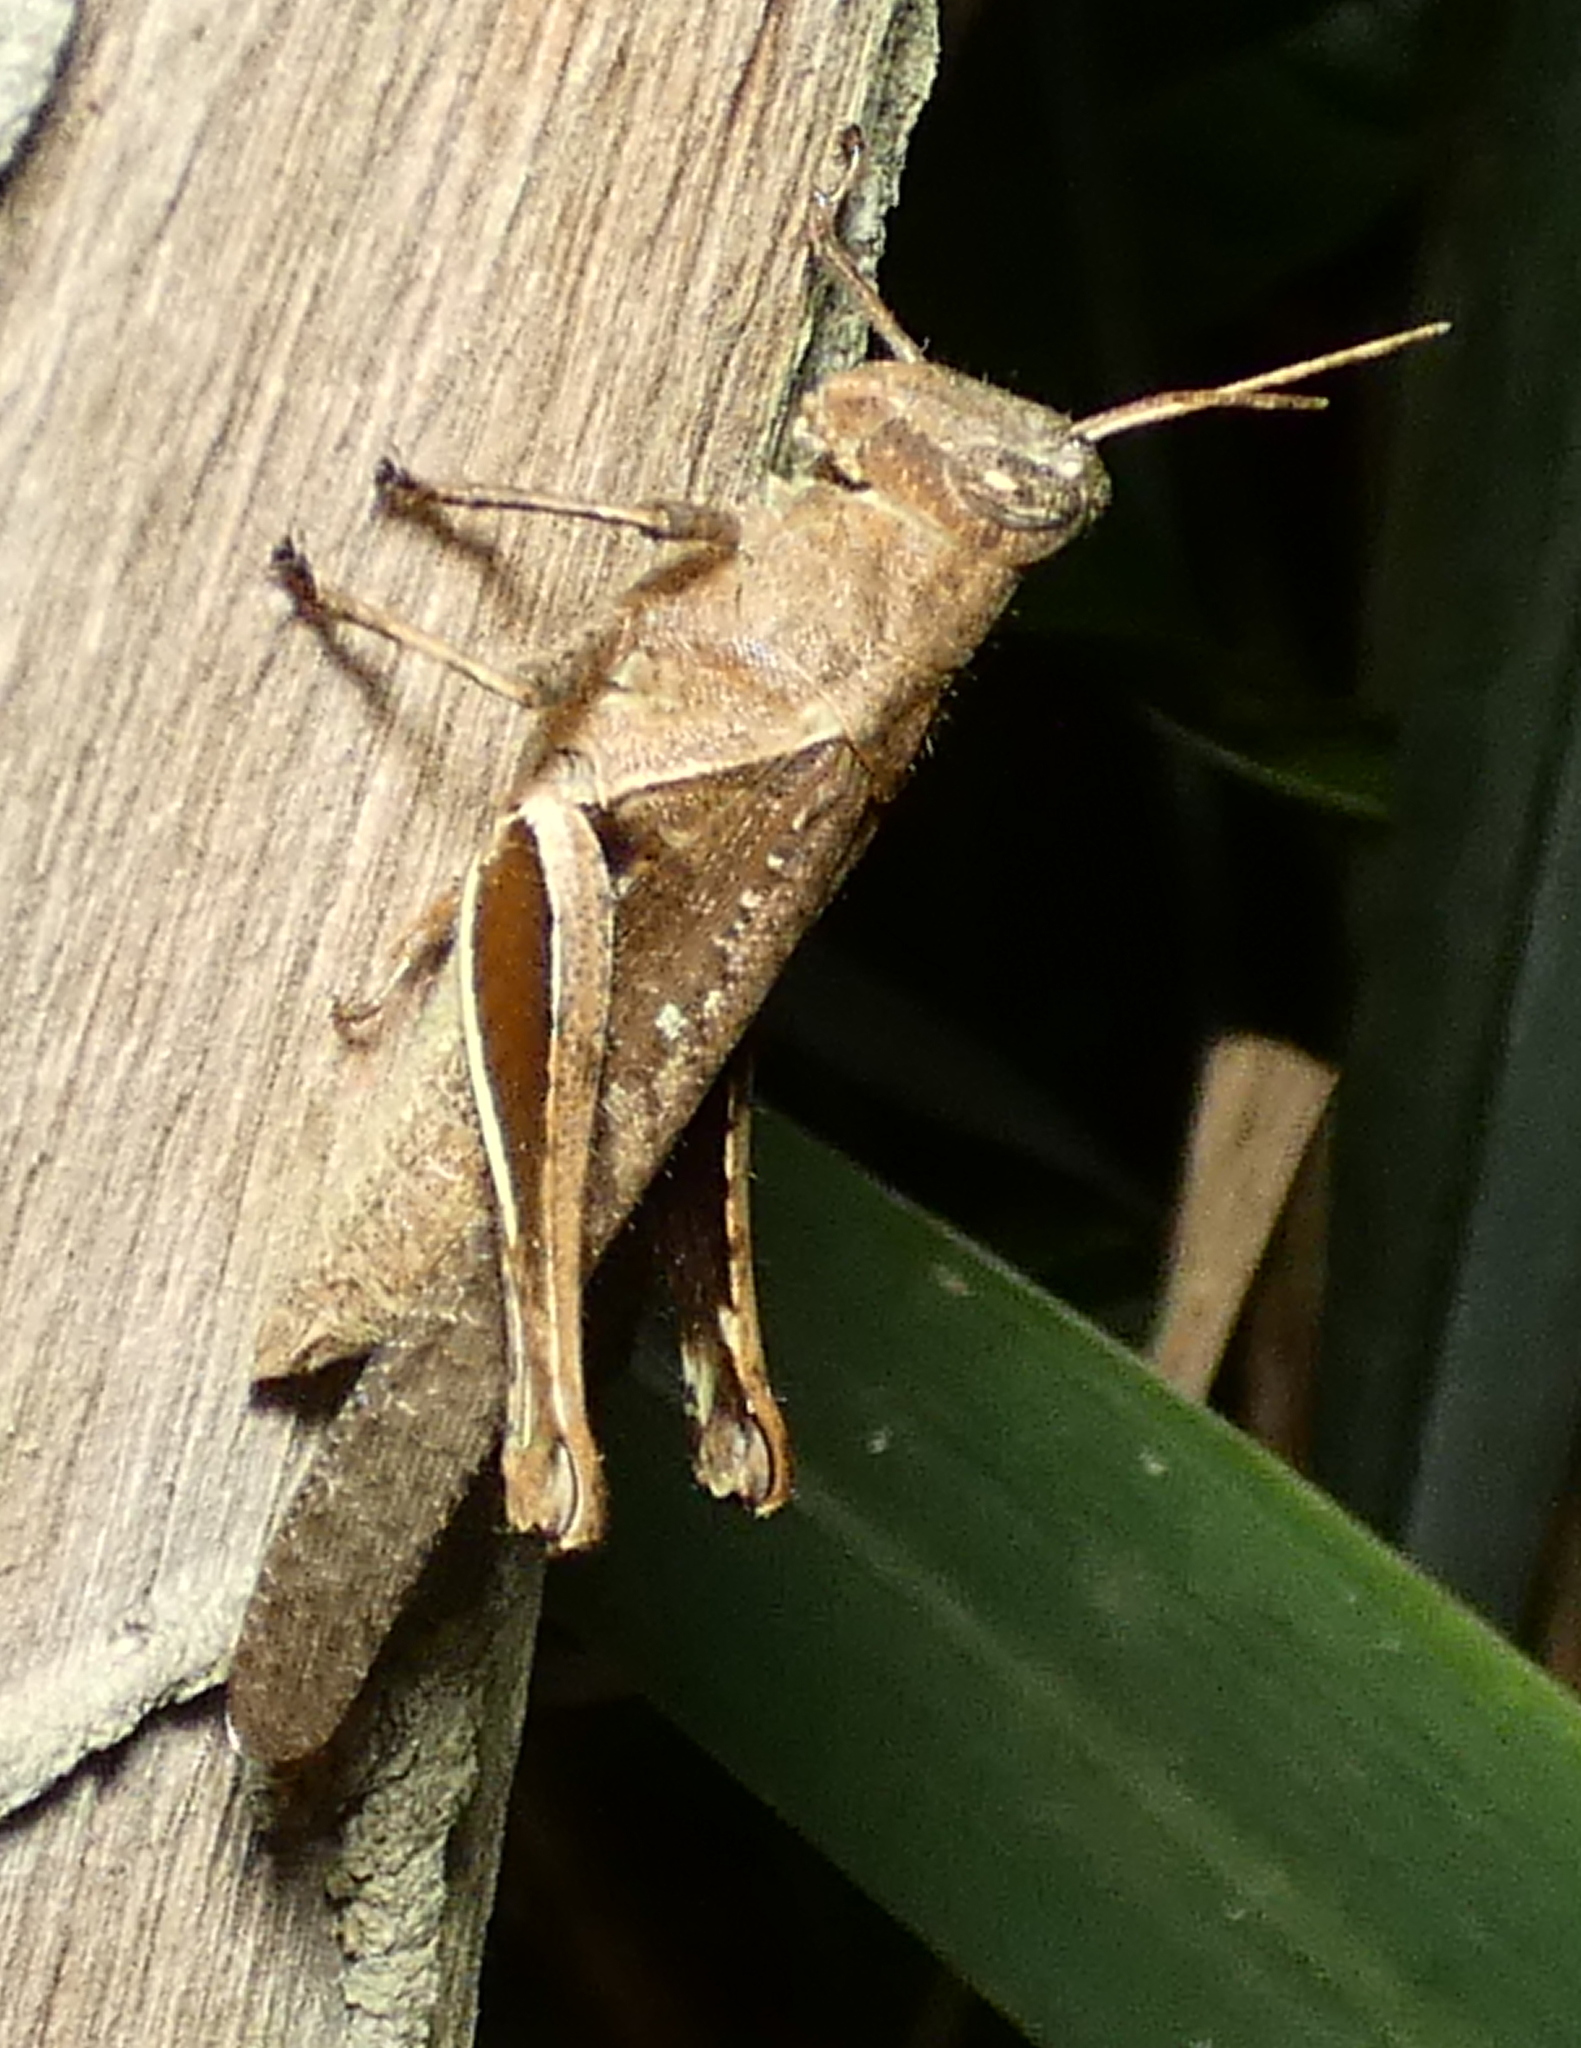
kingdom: Animalia
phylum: Arthropoda
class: Insecta
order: Orthoptera
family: Acrididae
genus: Abracris
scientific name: Abracris flavolineata
